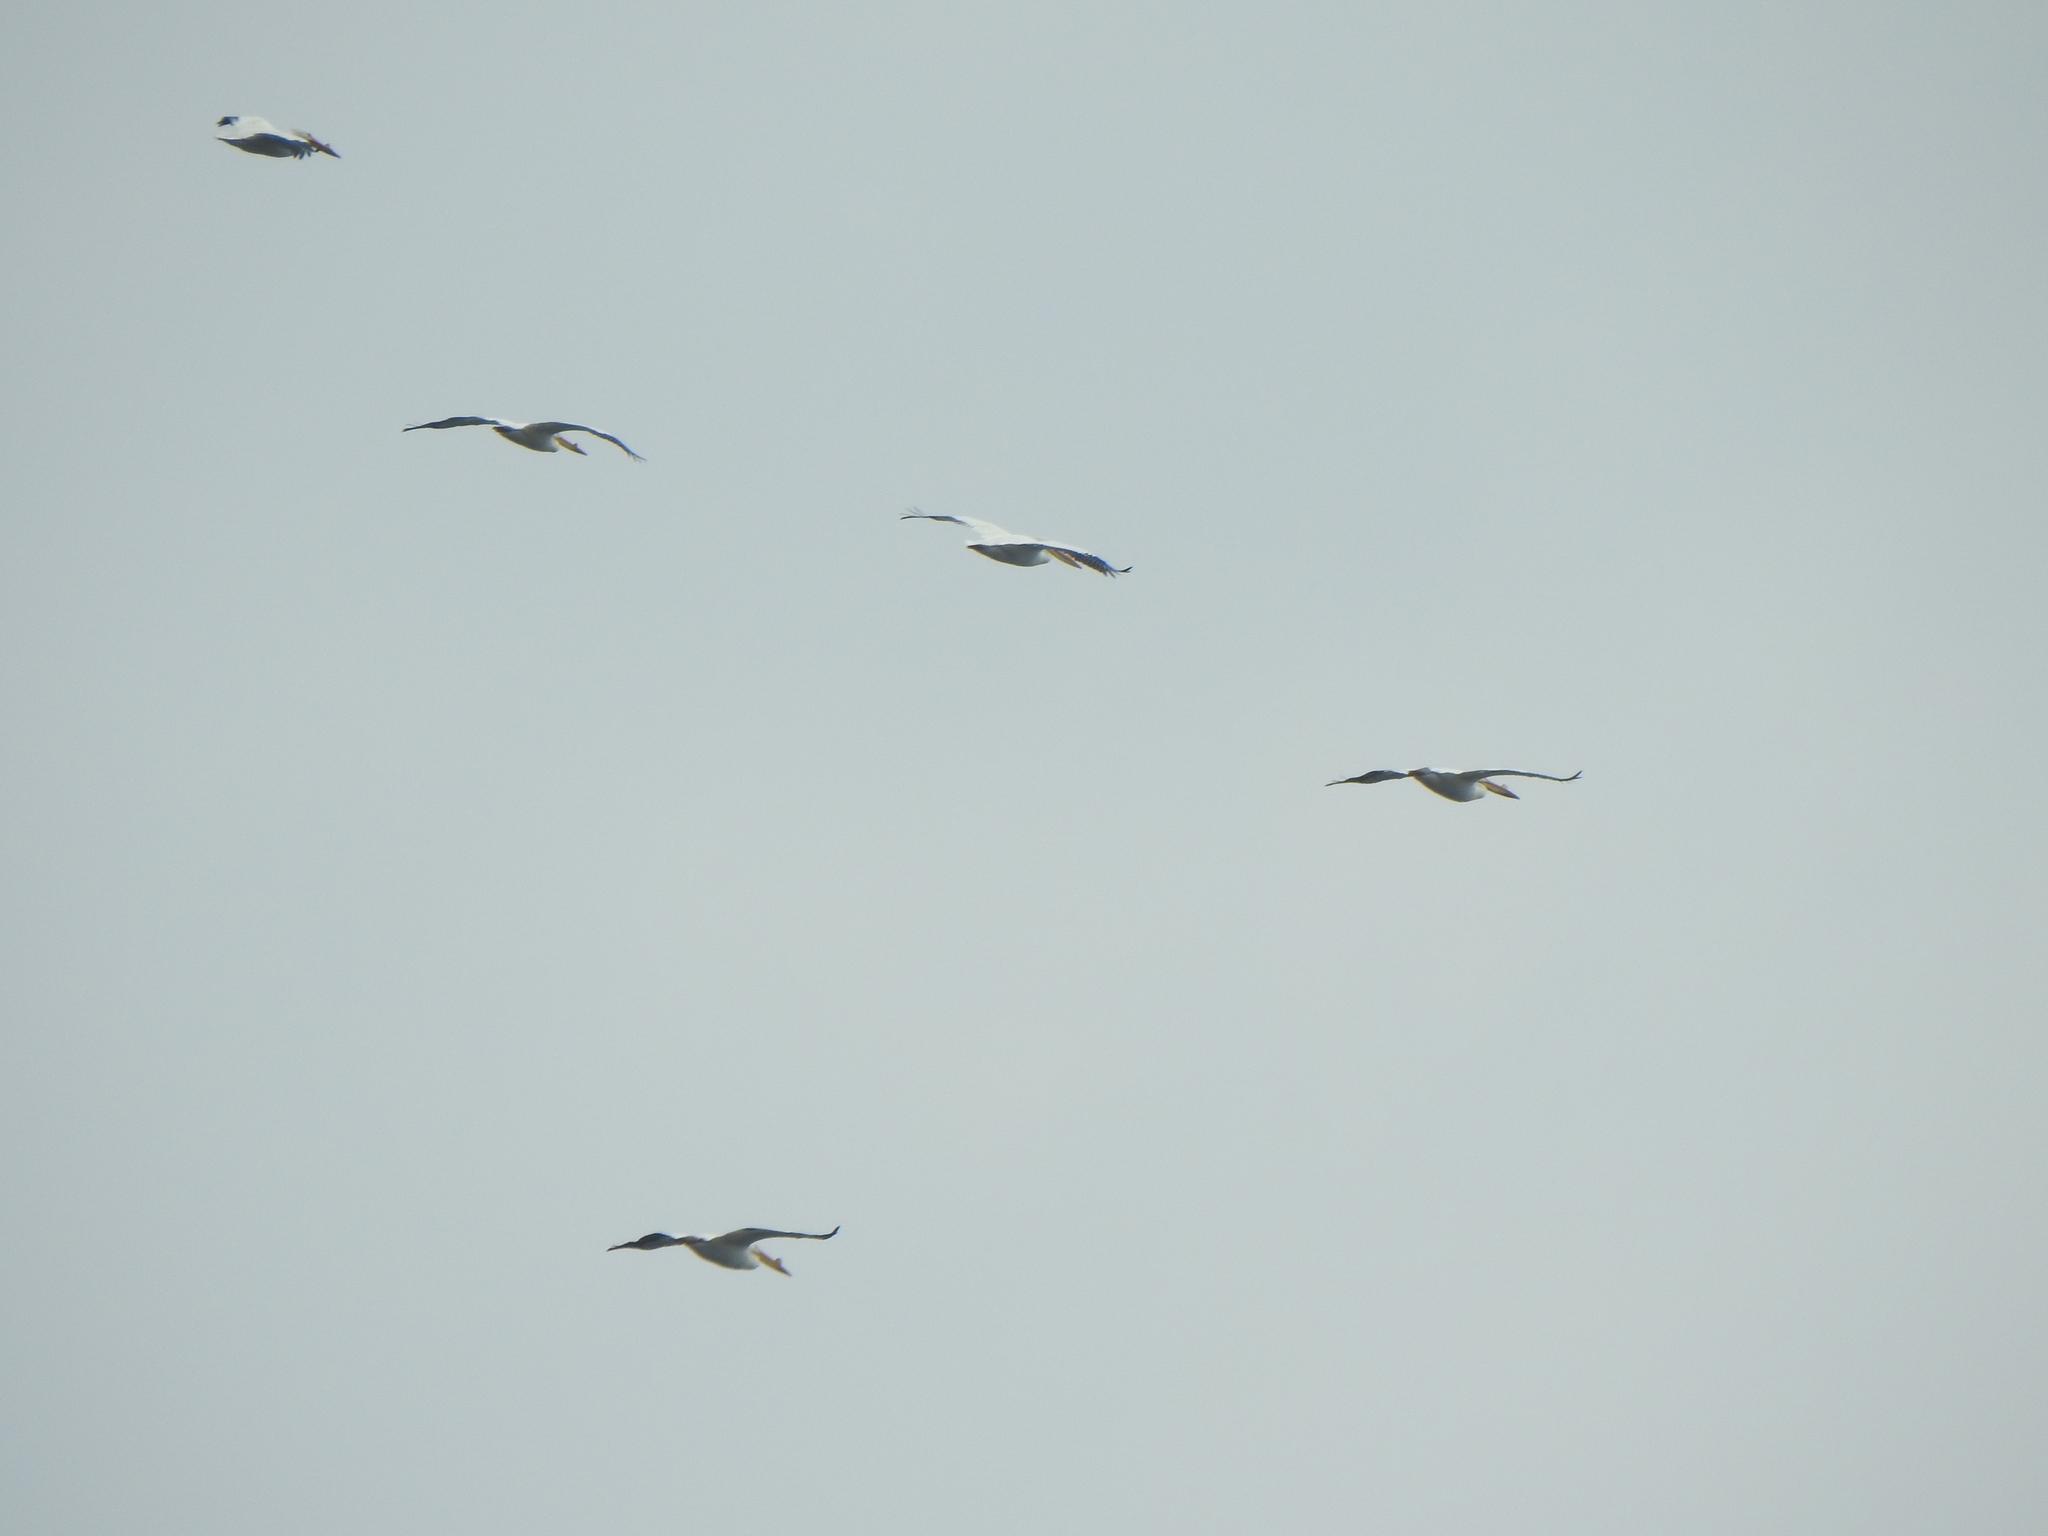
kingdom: Animalia
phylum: Chordata
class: Aves
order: Pelecaniformes
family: Pelecanidae
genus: Pelecanus
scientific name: Pelecanus erythrorhynchos
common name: American white pelican
